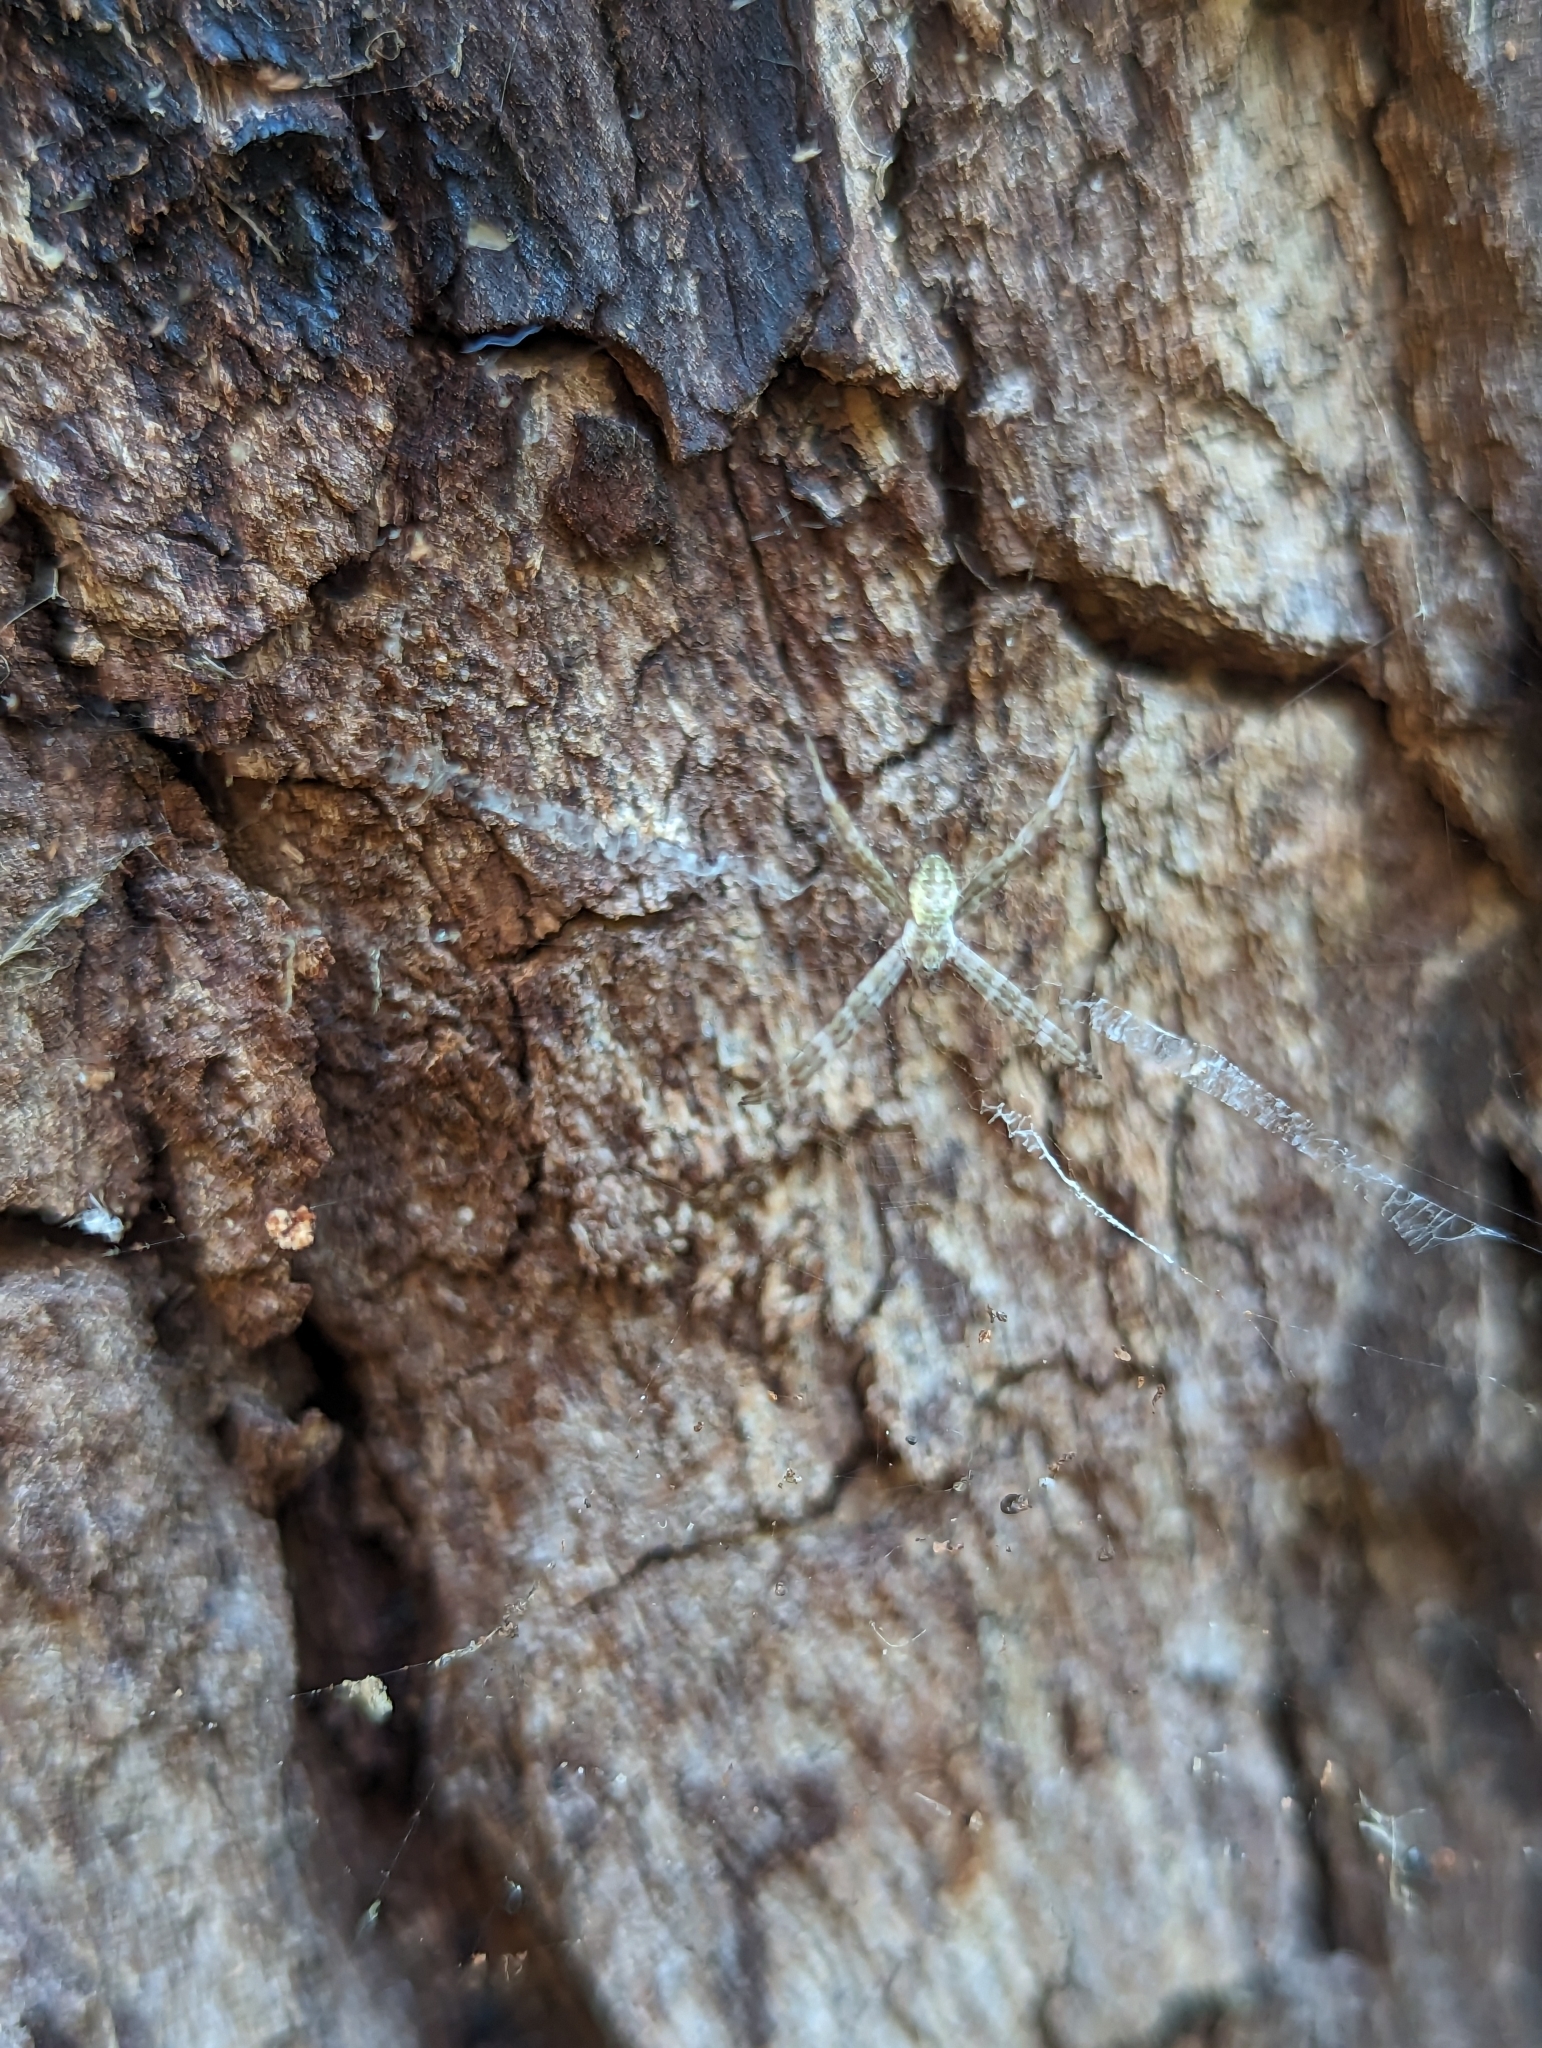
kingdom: Animalia
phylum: Arthropoda
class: Arachnida
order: Araneae
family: Araneidae
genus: Argiope
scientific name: Argiope keyserlingi
